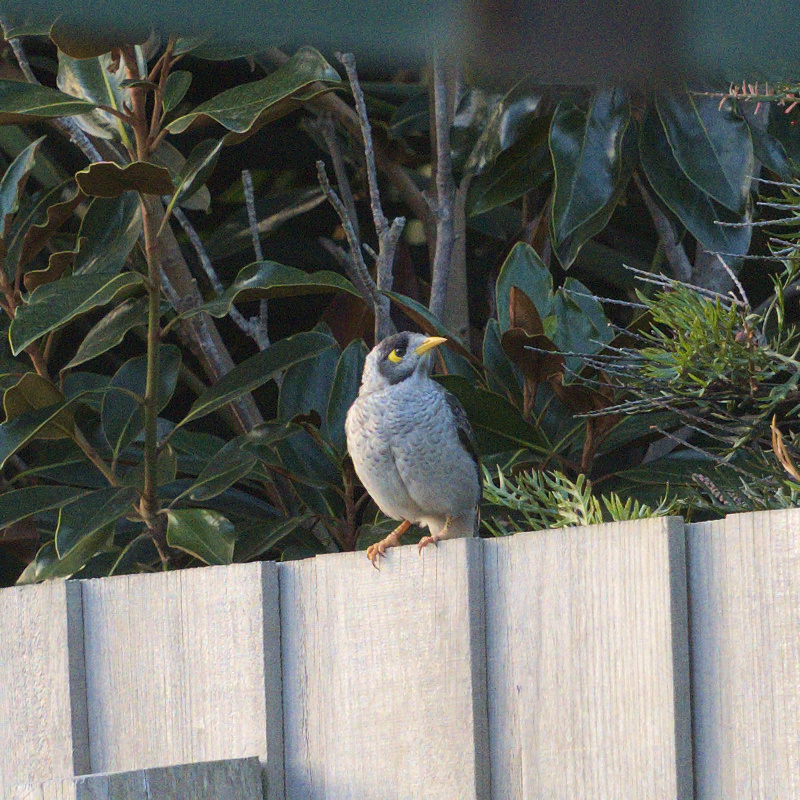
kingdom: Animalia
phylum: Chordata
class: Aves
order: Passeriformes
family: Meliphagidae
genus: Manorina
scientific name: Manorina melanocephala
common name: Noisy miner
